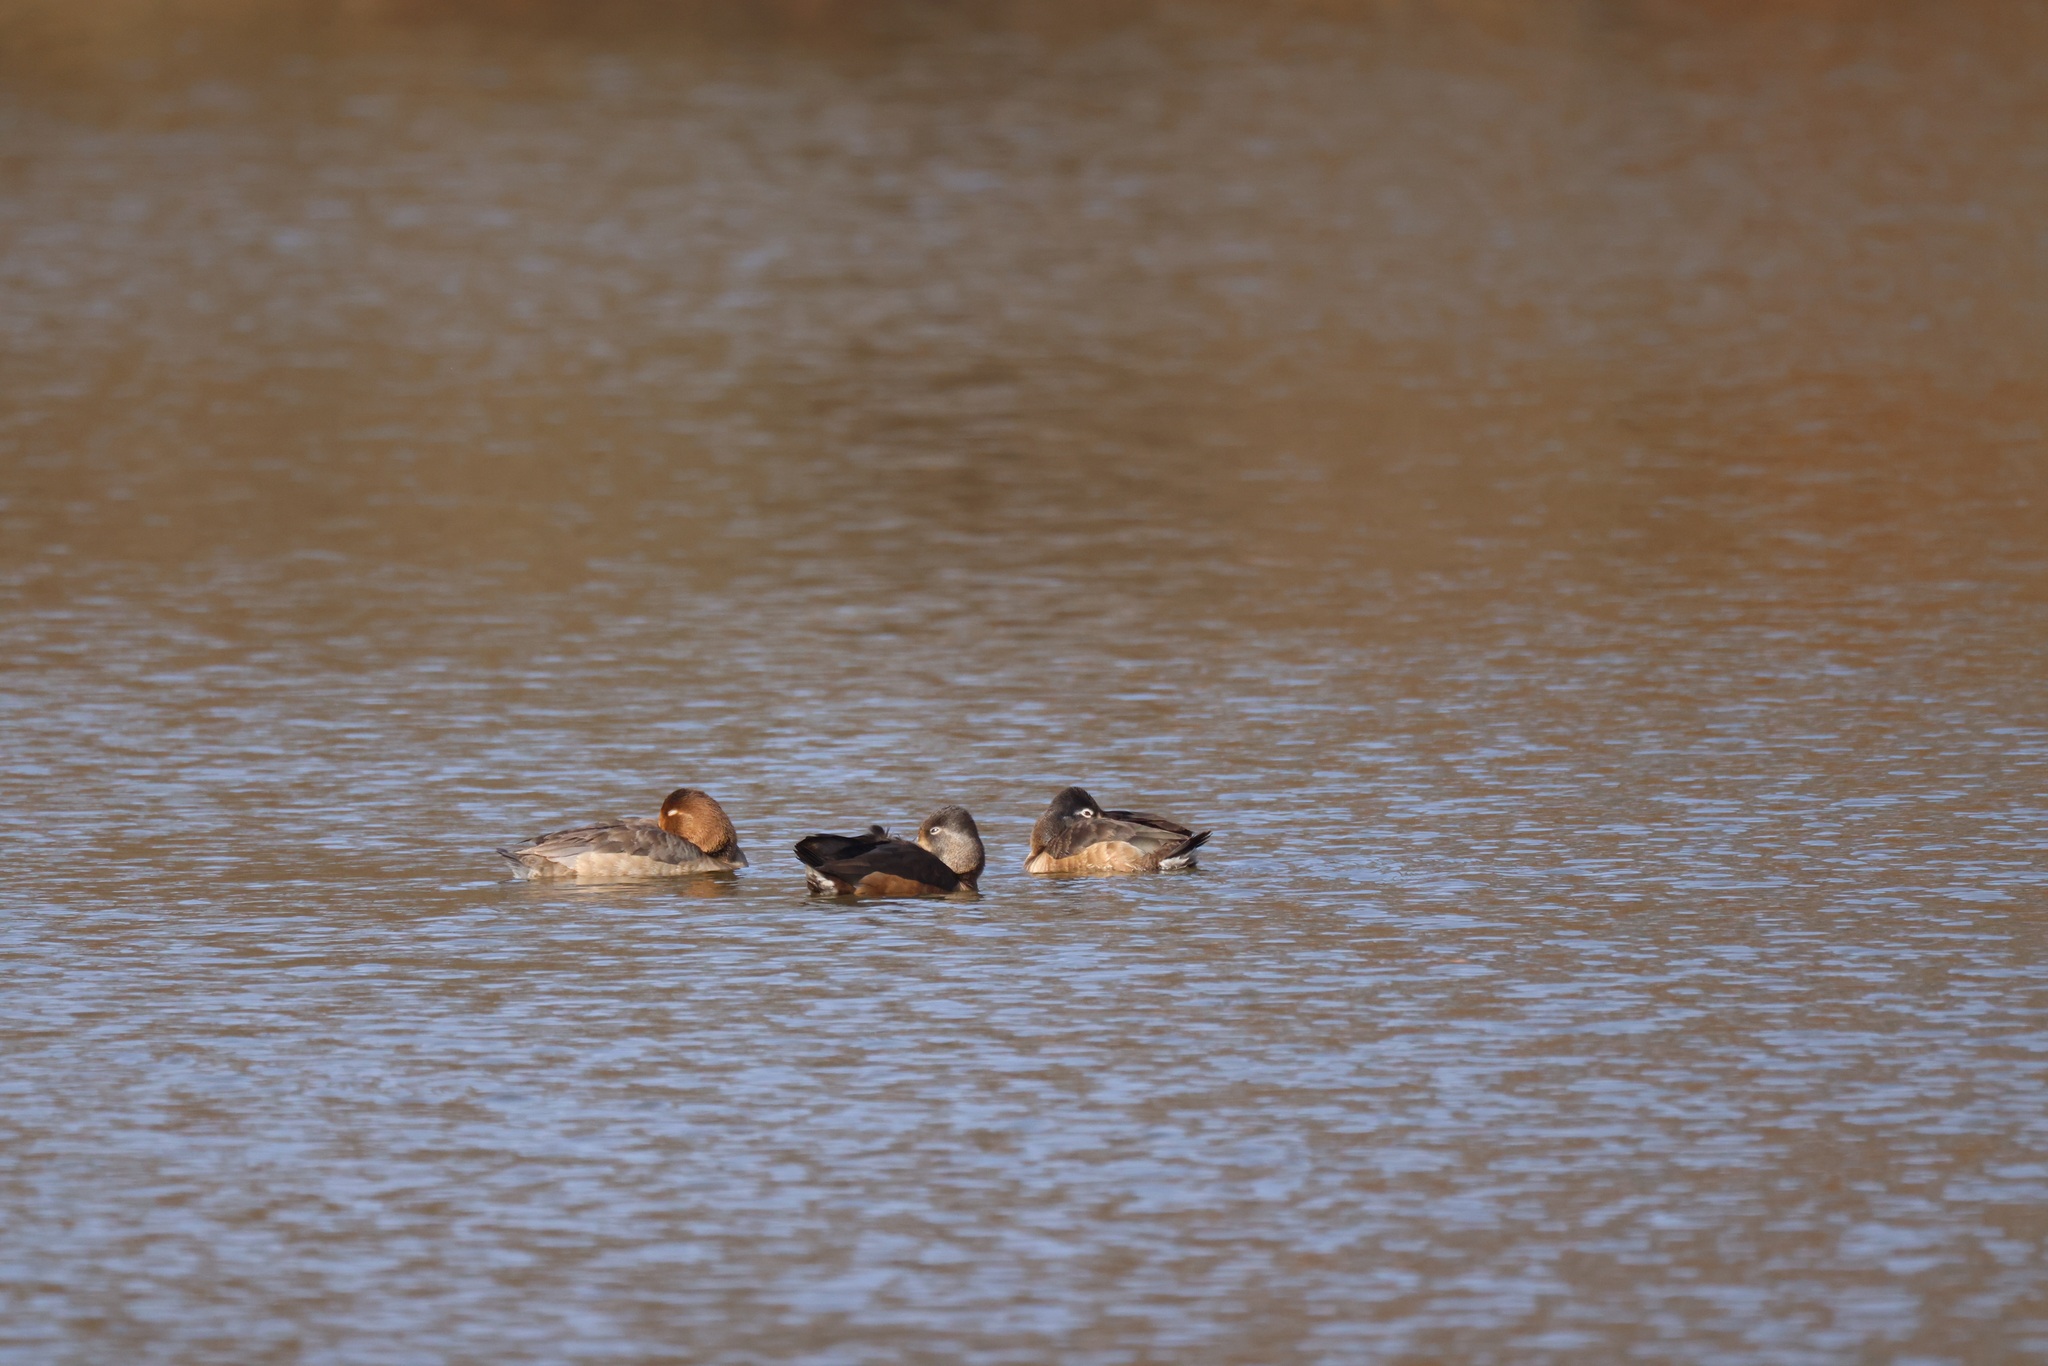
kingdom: Animalia
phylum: Chordata
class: Aves
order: Anseriformes
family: Anatidae
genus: Aythya
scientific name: Aythya americana
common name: Redhead
